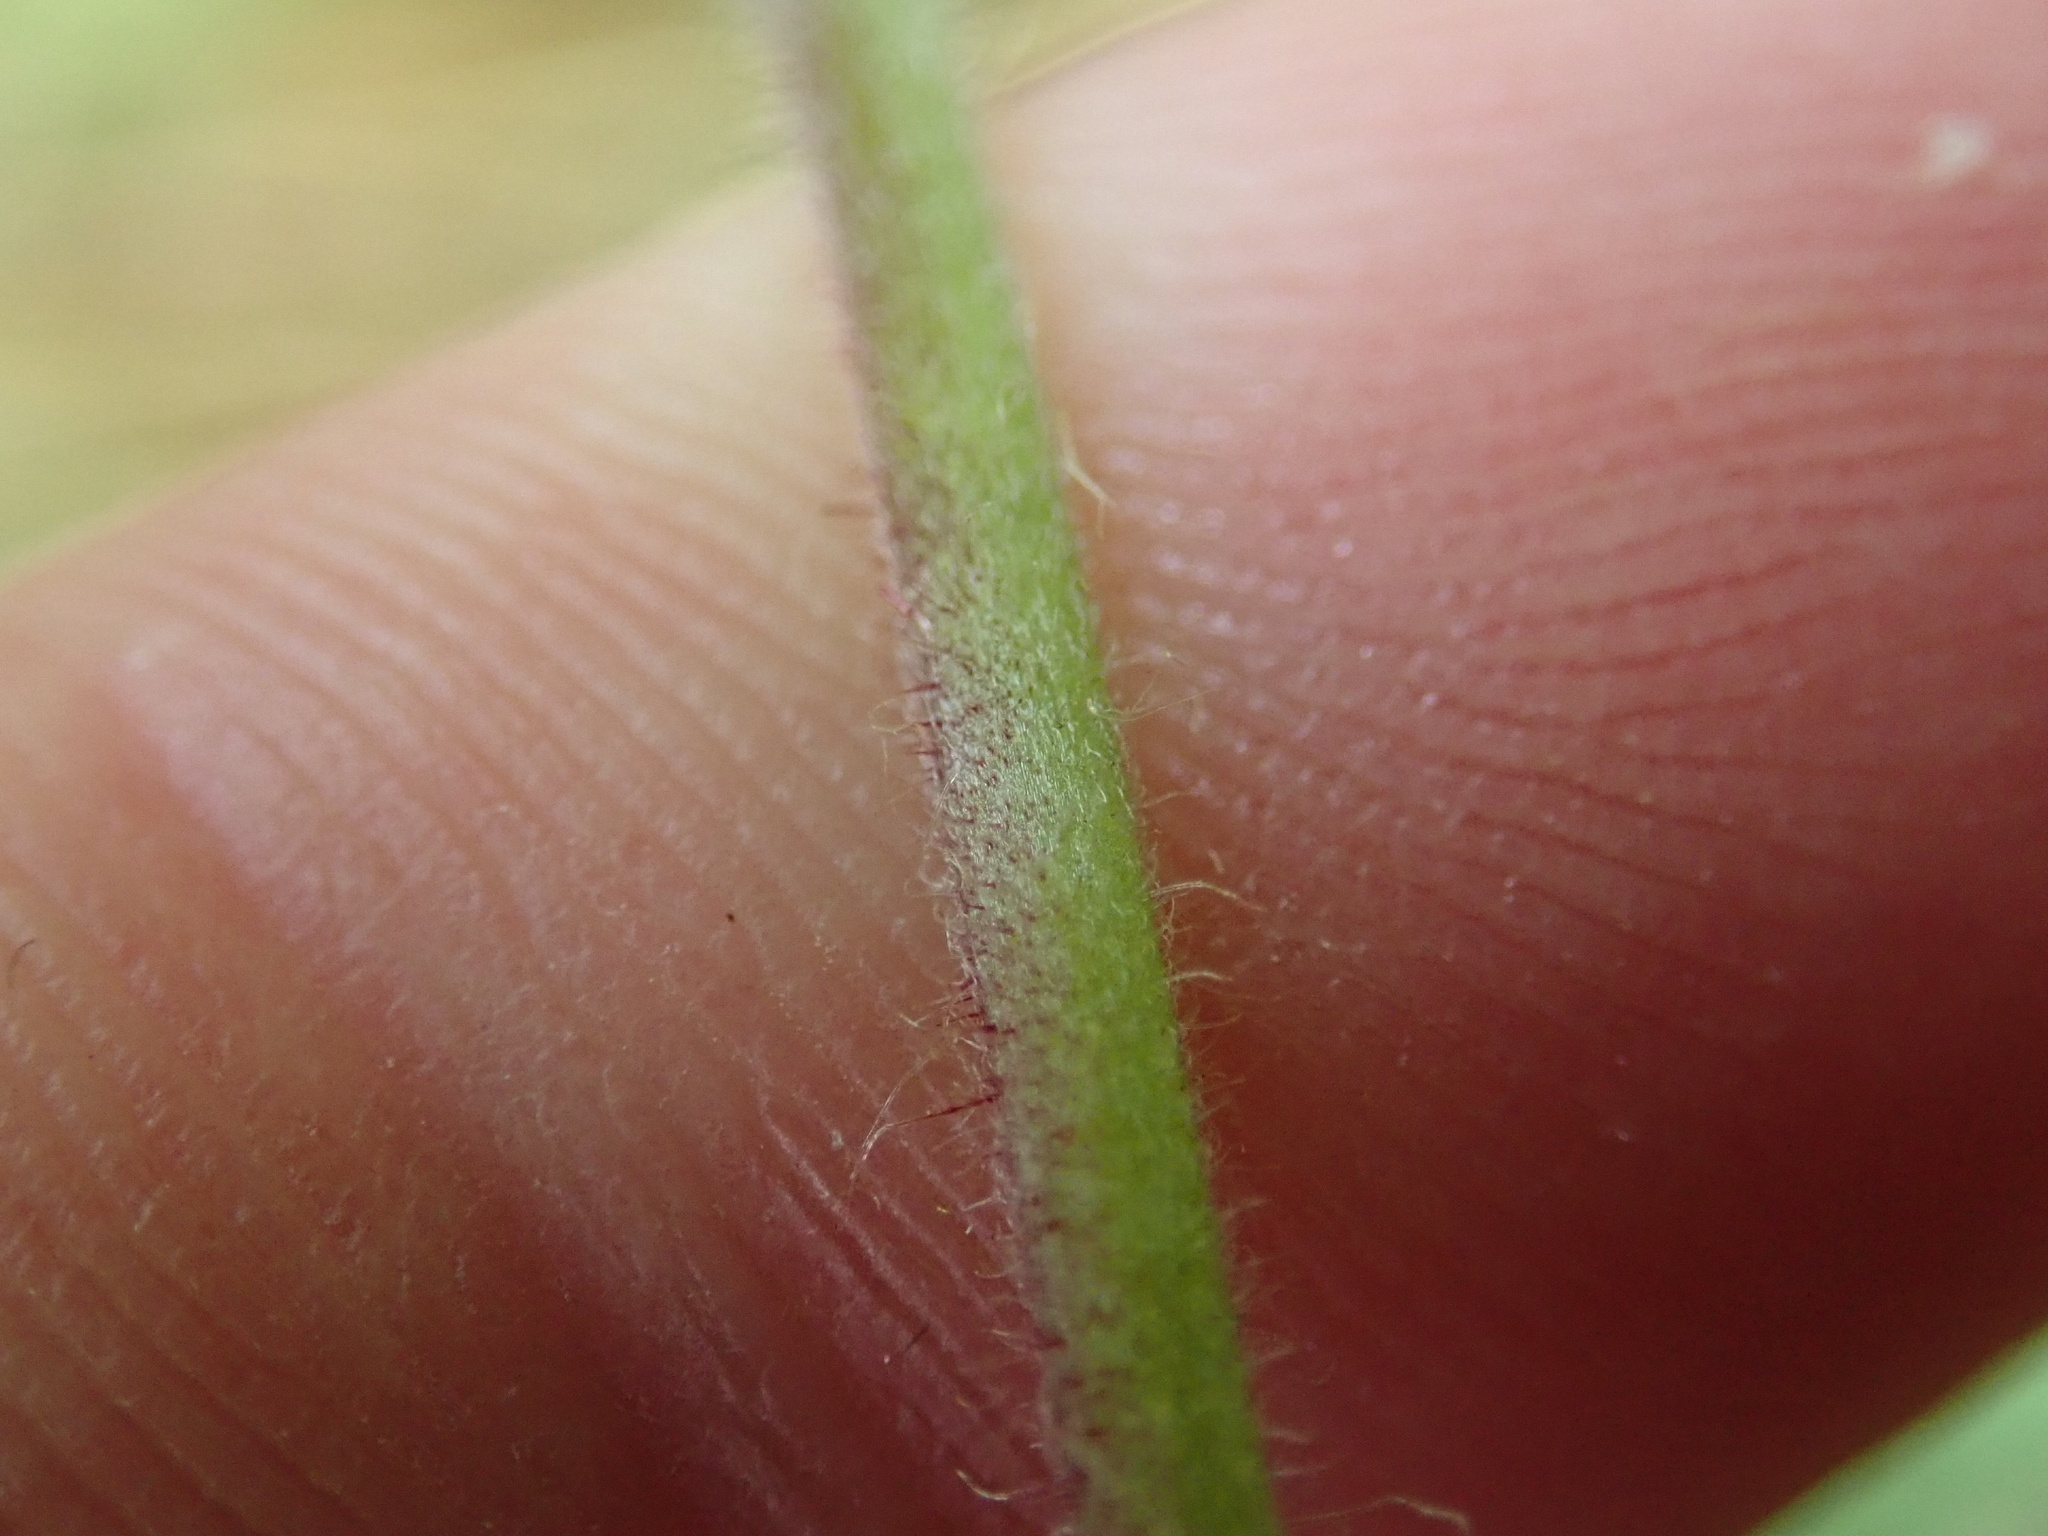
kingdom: Plantae
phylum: Tracheophyta
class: Magnoliopsida
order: Caryophyllales
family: Caryophyllaceae
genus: Silene
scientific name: Silene dioica
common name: Red campion
